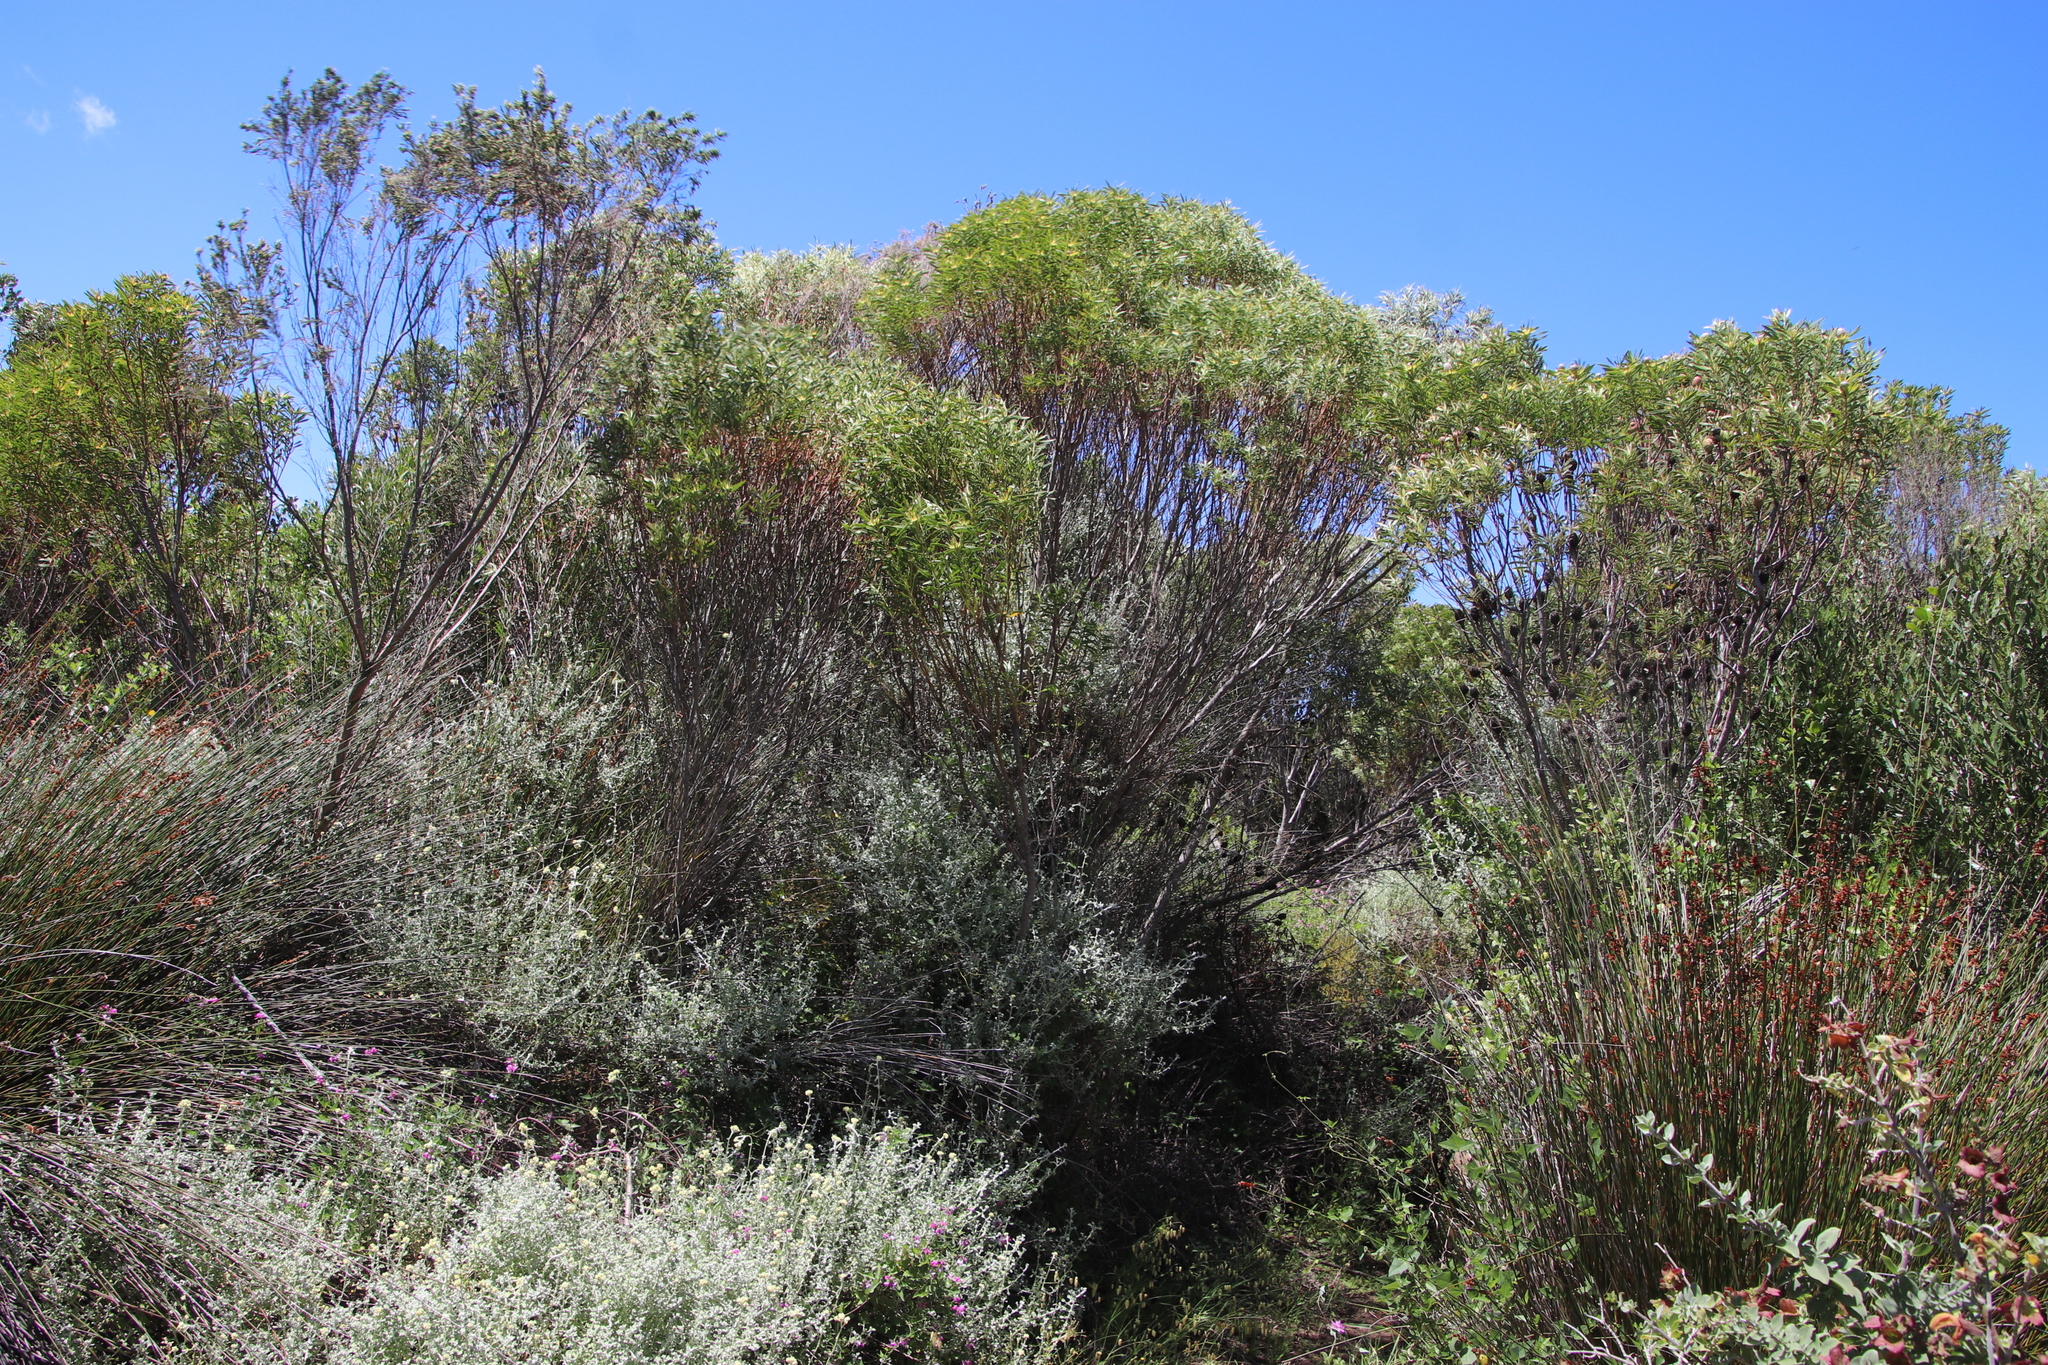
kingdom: Plantae
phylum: Tracheophyta
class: Magnoliopsida
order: Proteales
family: Proteaceae
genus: Leucadendron
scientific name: Leucadendron coniferum
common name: Dune conebush
